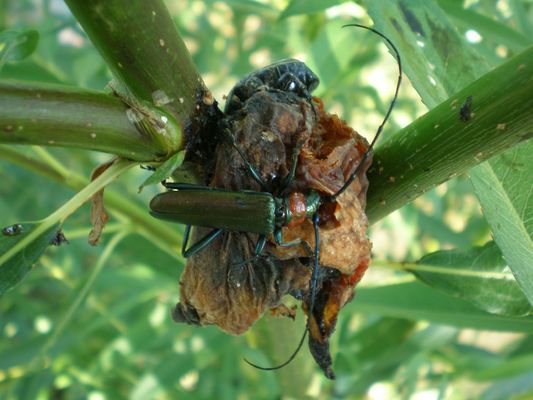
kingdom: Animalia
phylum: Arthropoda
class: Insecta
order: Coleoptera
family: Cerambycidae
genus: Aromia
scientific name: Aromia moschata
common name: Musk beetle
